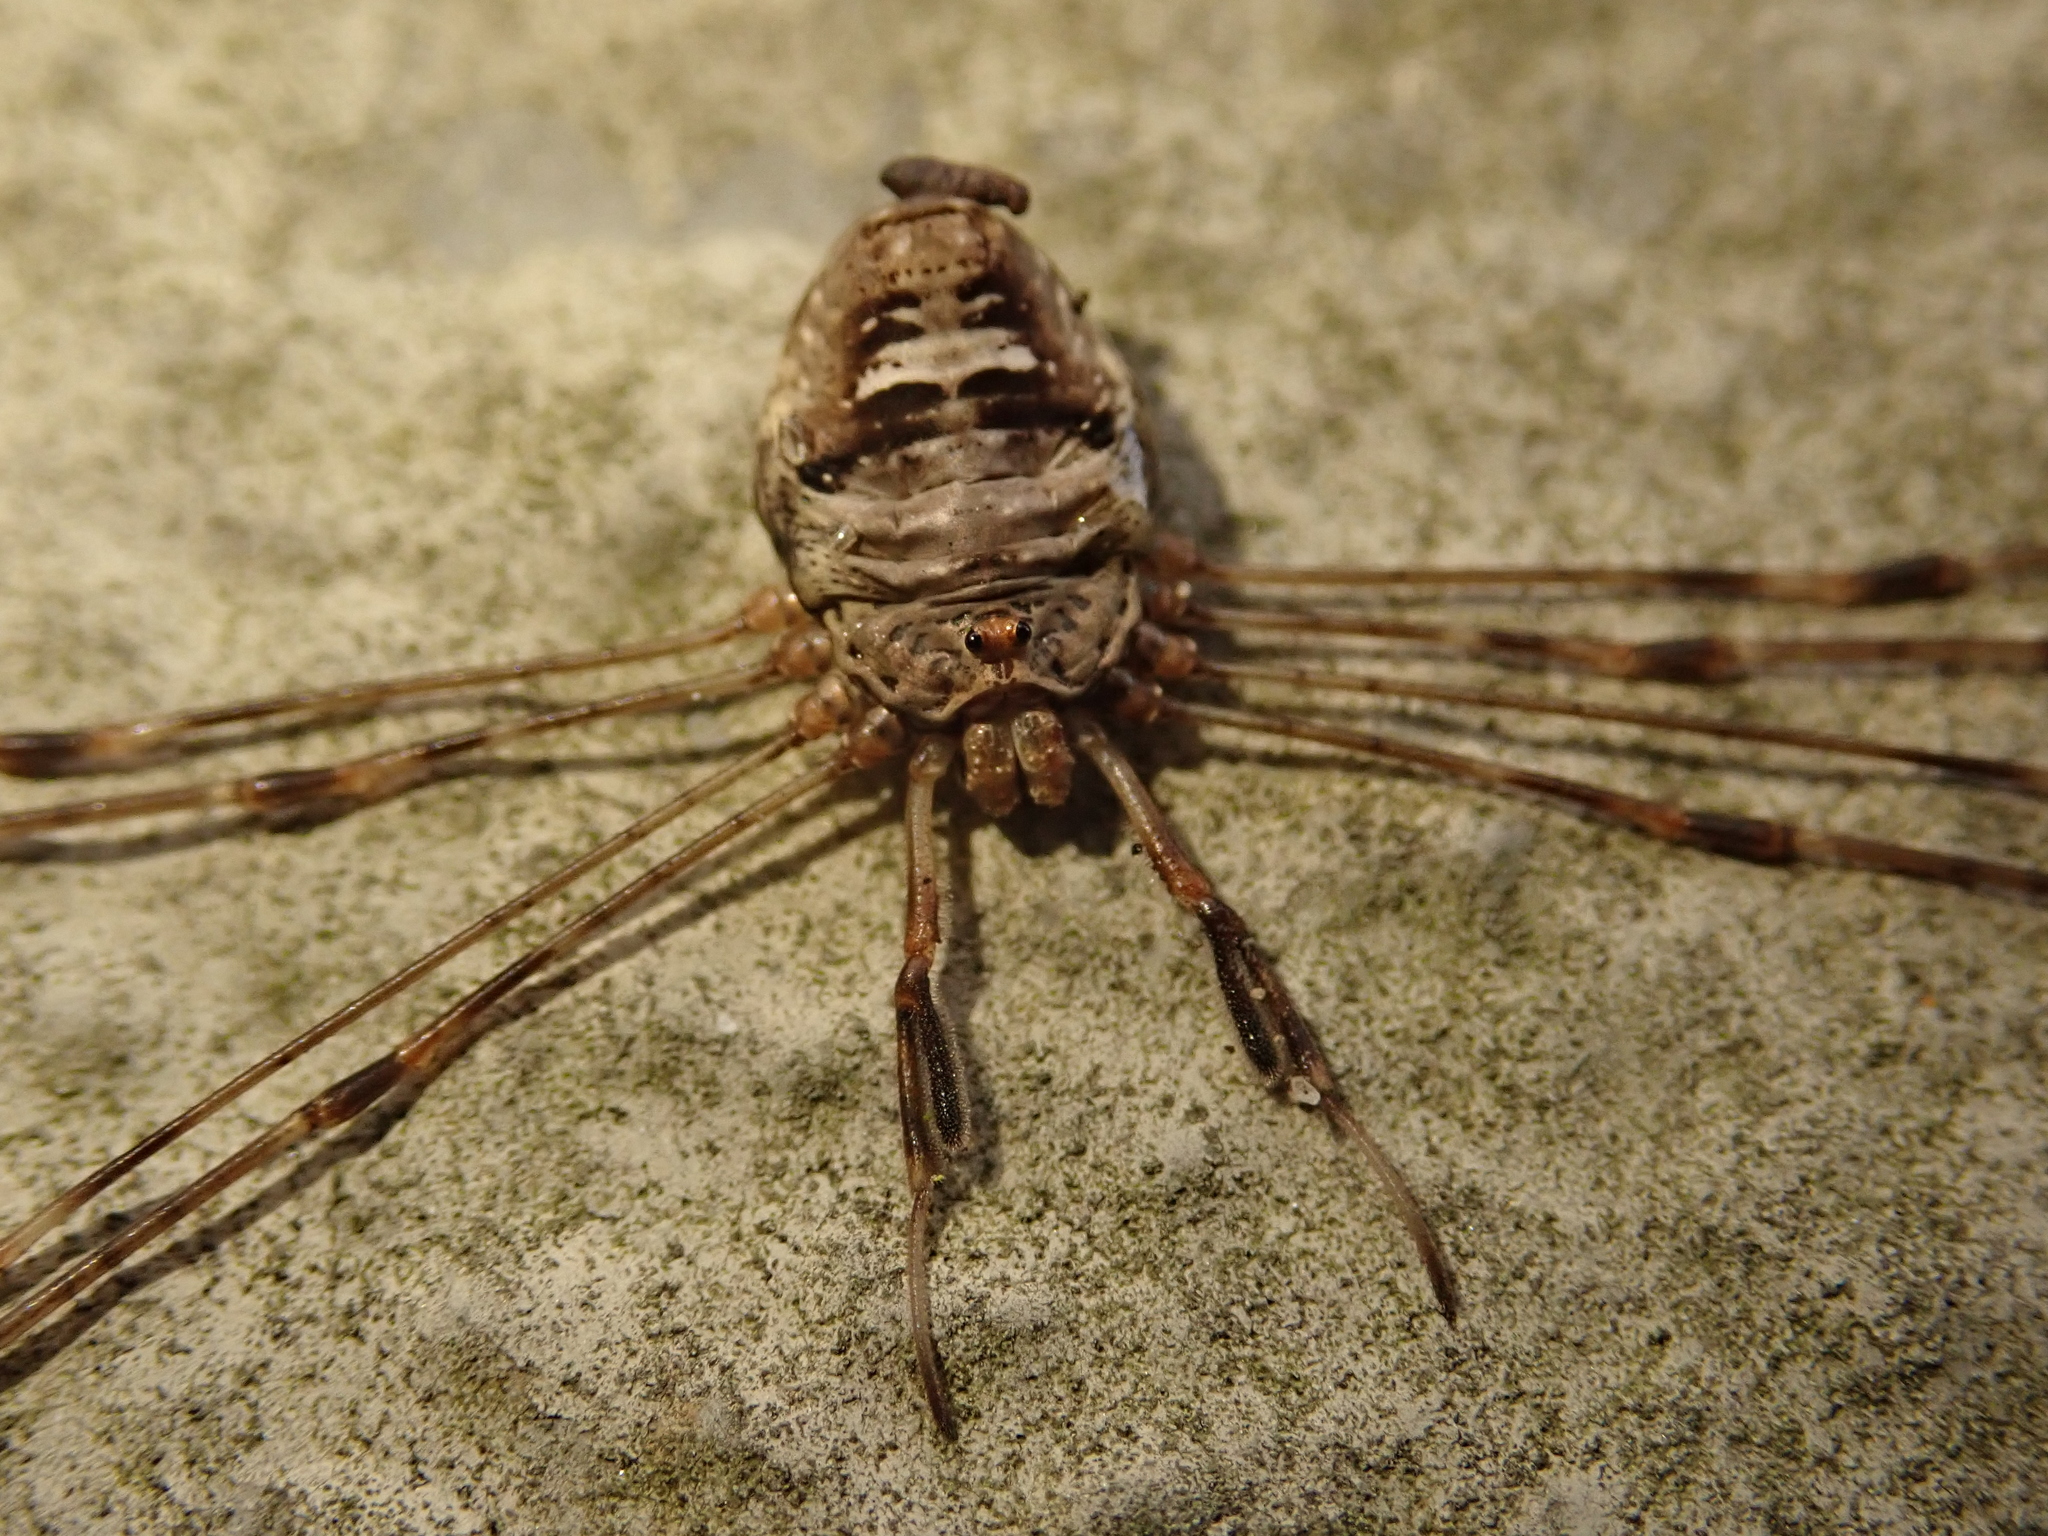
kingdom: Animalia
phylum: Arthropoda
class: Arachnida
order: Opiliones
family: Phalangiidae
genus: Dicranopalpus
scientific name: Dicranopalpus ramosus
